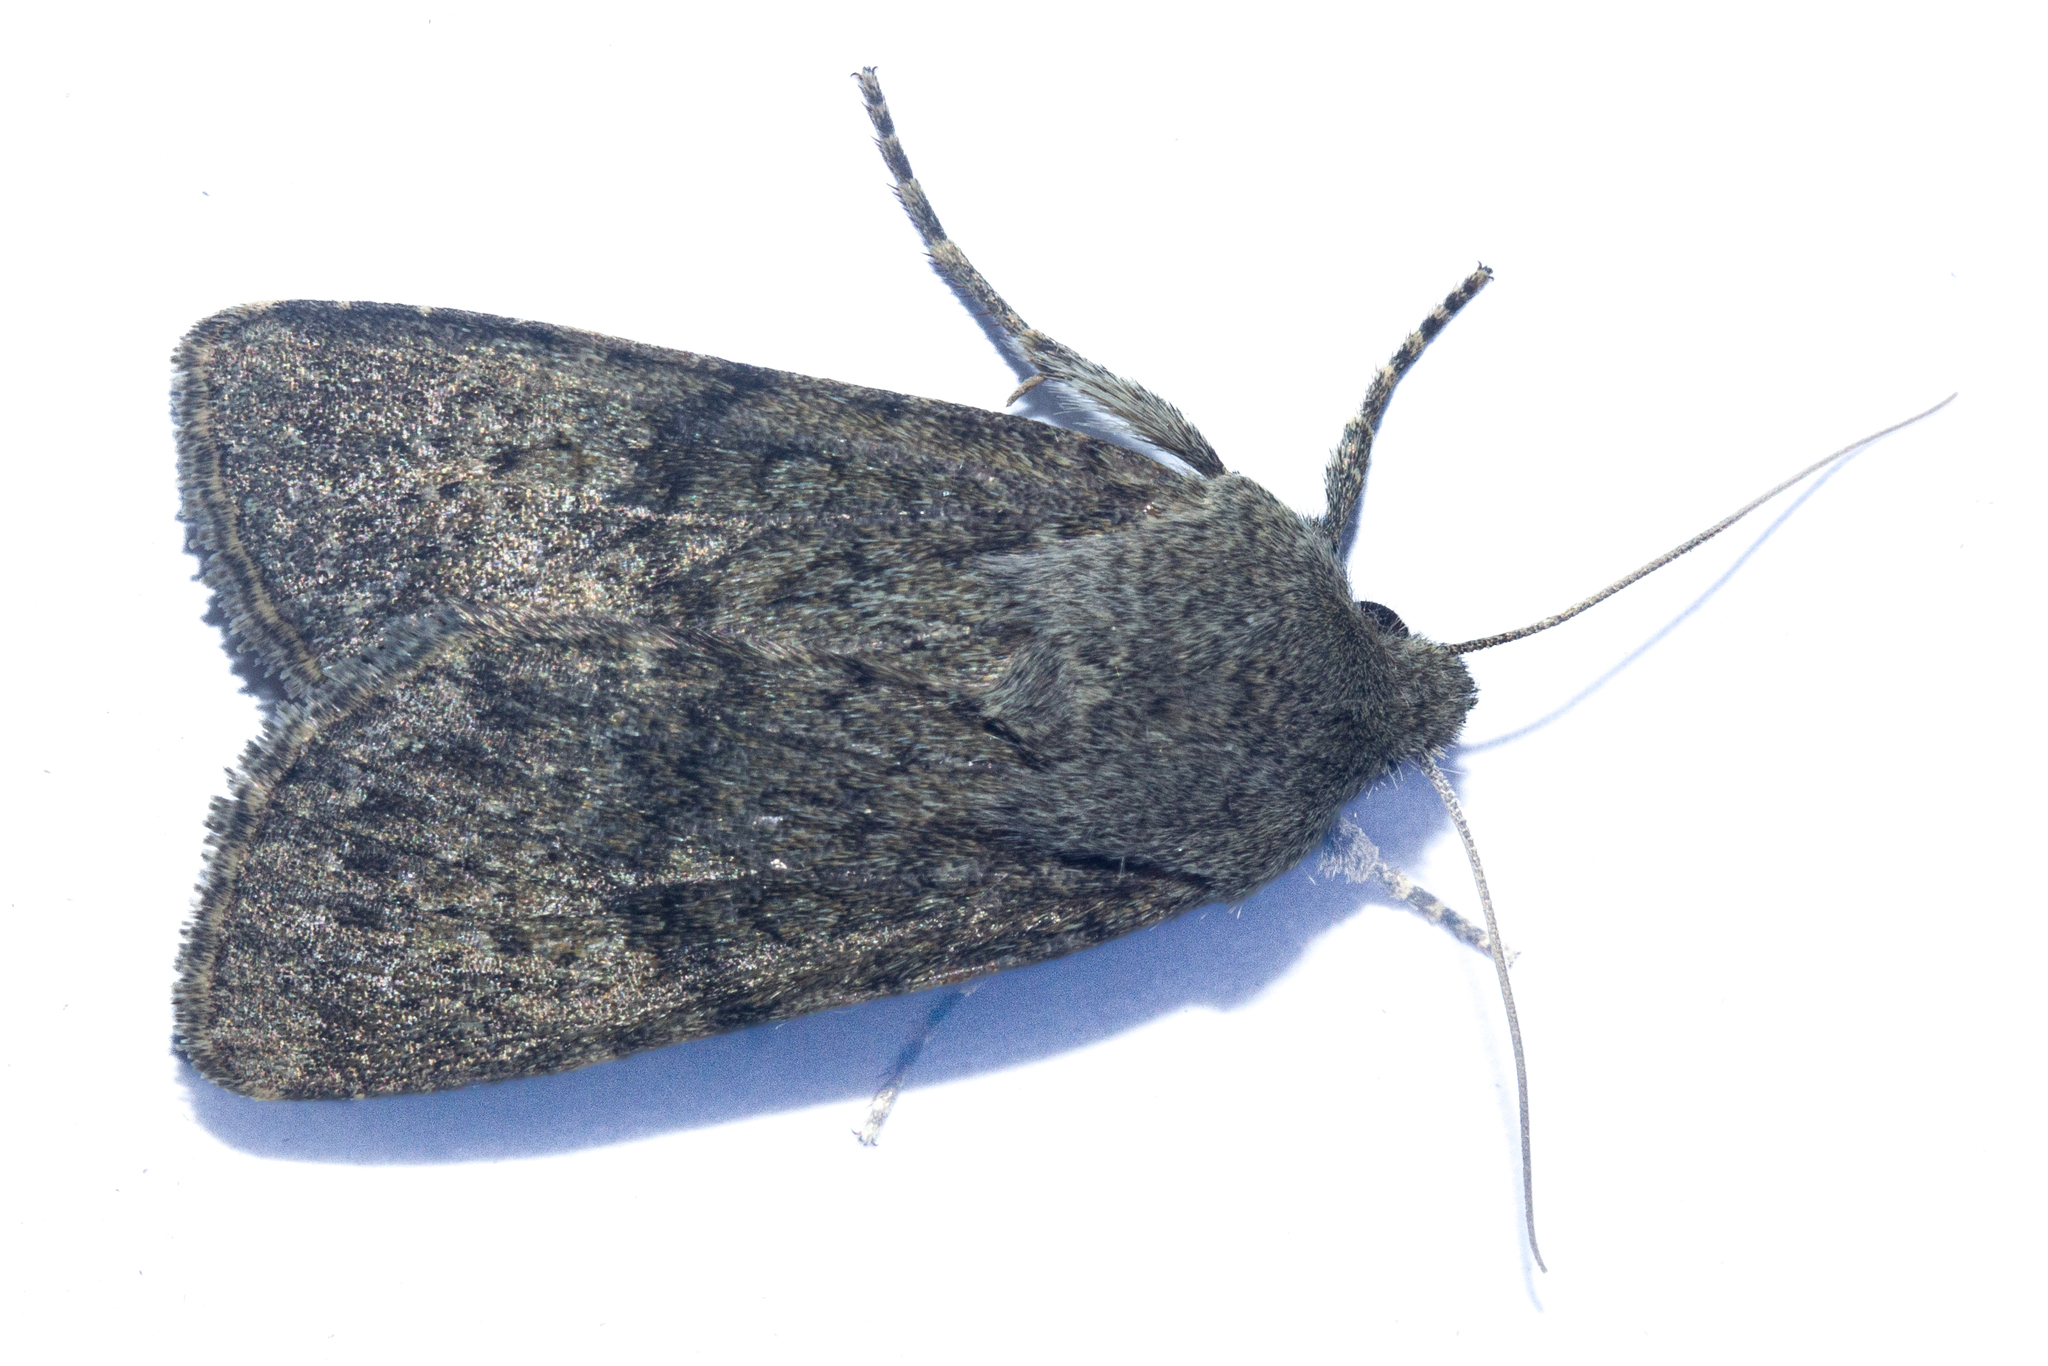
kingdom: Animalia
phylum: Arthropoda
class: Insecta
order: Lepidoptera
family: Noctuidae
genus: Ichneutica
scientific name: Ichneutica moderata
